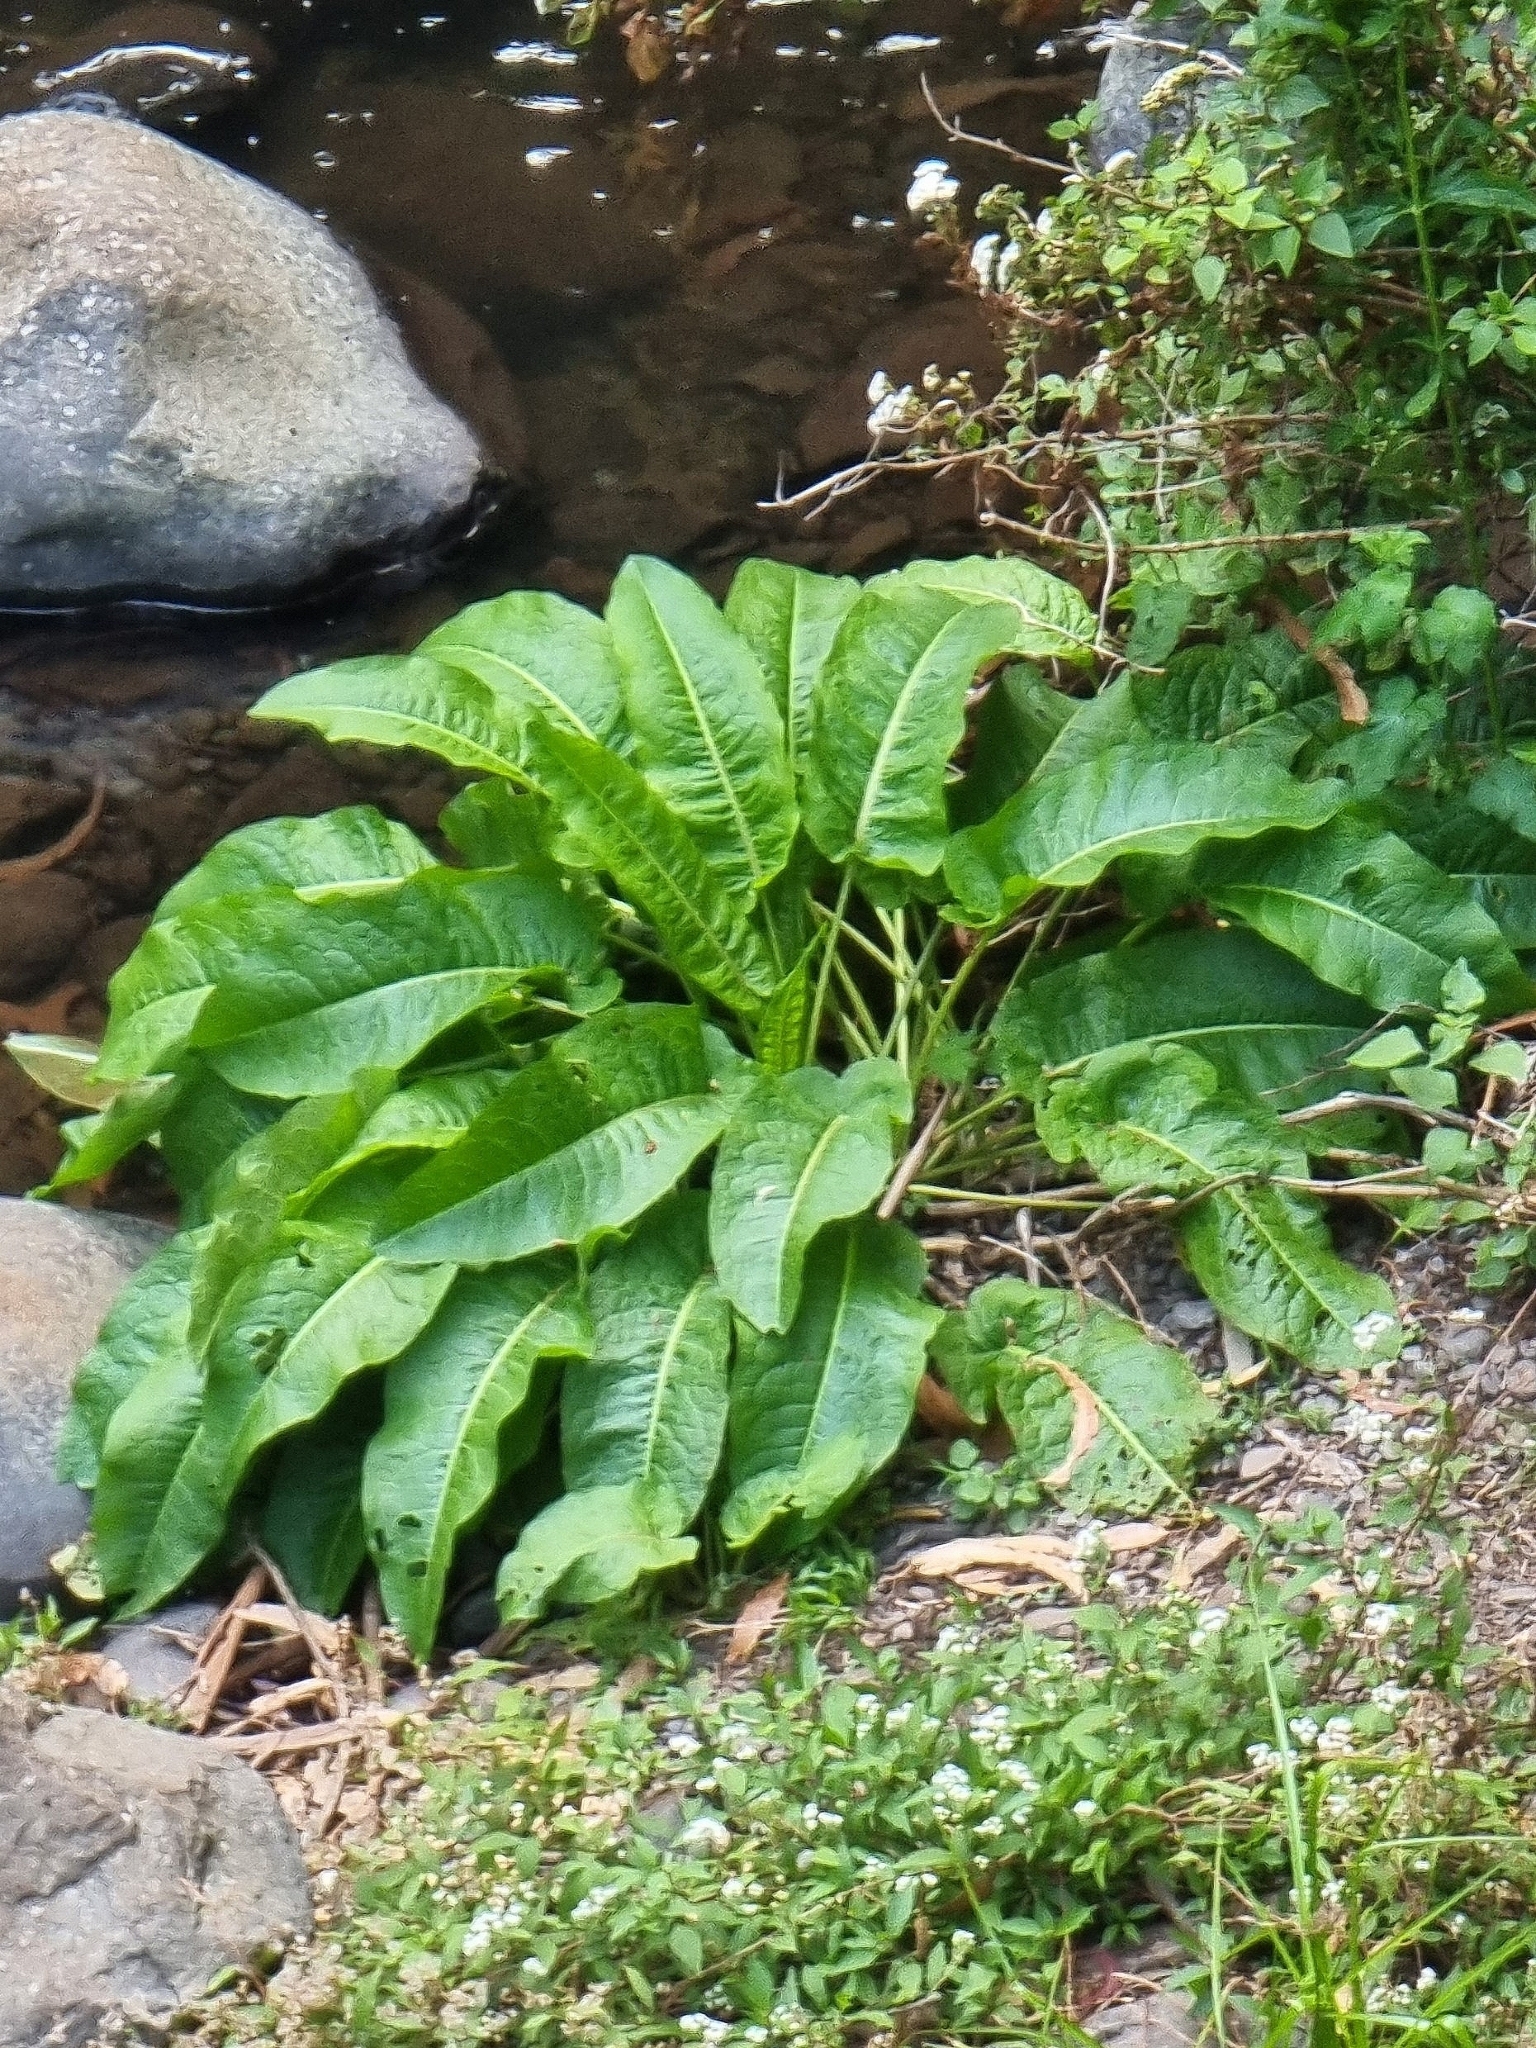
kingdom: Plantae
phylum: Tracheophyta
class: Magnoliopsida
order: Caryophyllales
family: Polygonaceae
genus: Rumex
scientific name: Rumex obtusifolius
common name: Bitter dock
